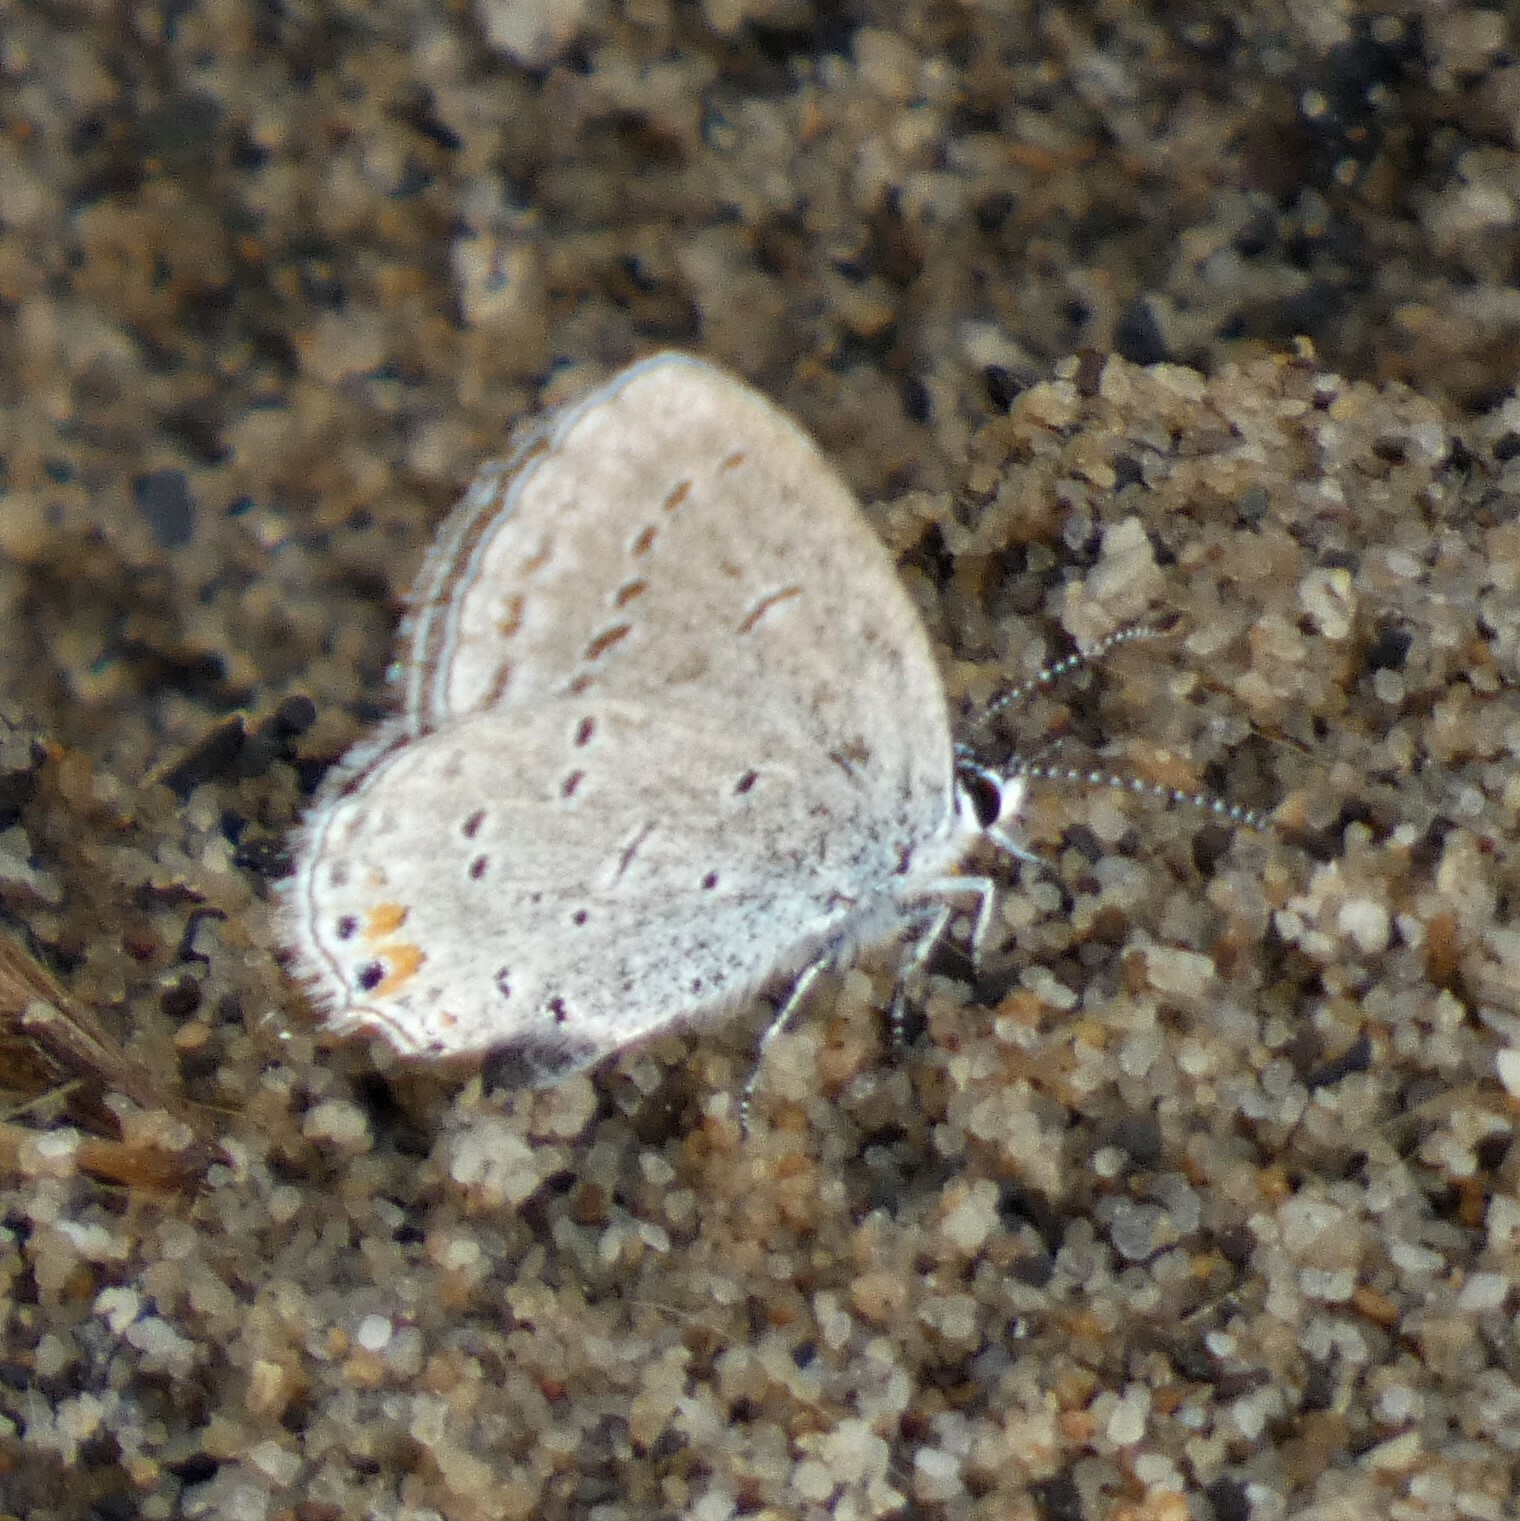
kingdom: Animalia
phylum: Arthropoda
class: Insecta
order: Lepidoptera
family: Lycaenidae
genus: Elkalyce
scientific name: Elkalyce comyntas
